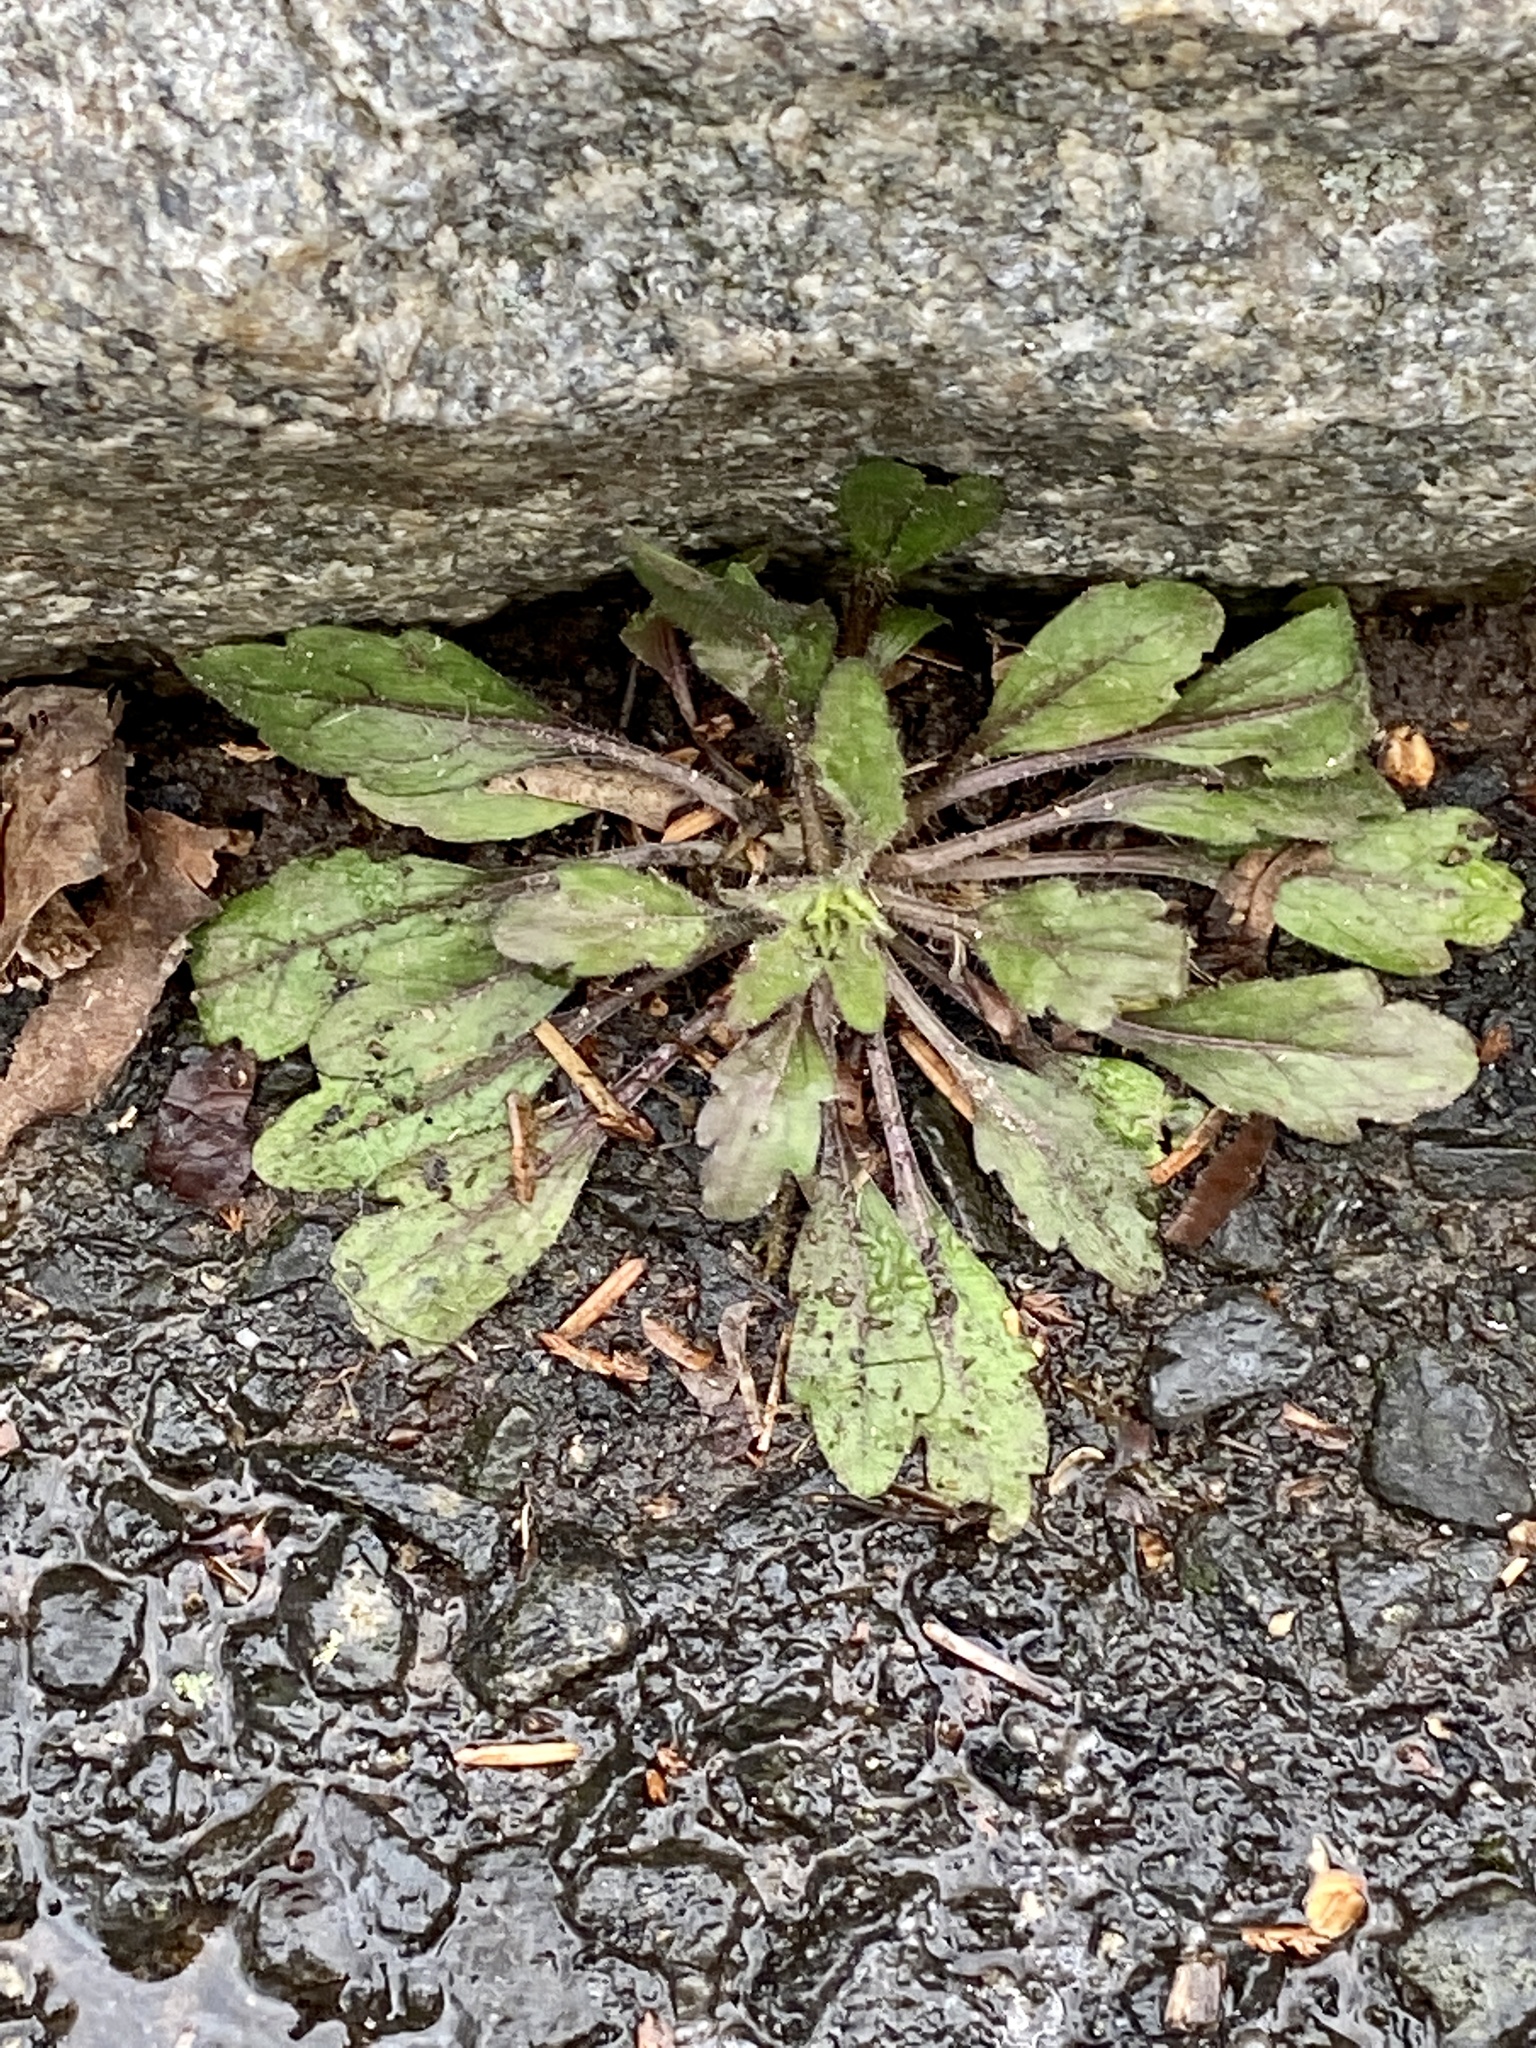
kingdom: Plantae
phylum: Tracheophyta
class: Magnoliopsida
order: Asterales
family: Asteraceae
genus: Erigeron
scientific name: Erigeron canadensis
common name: Canadian fleabane
